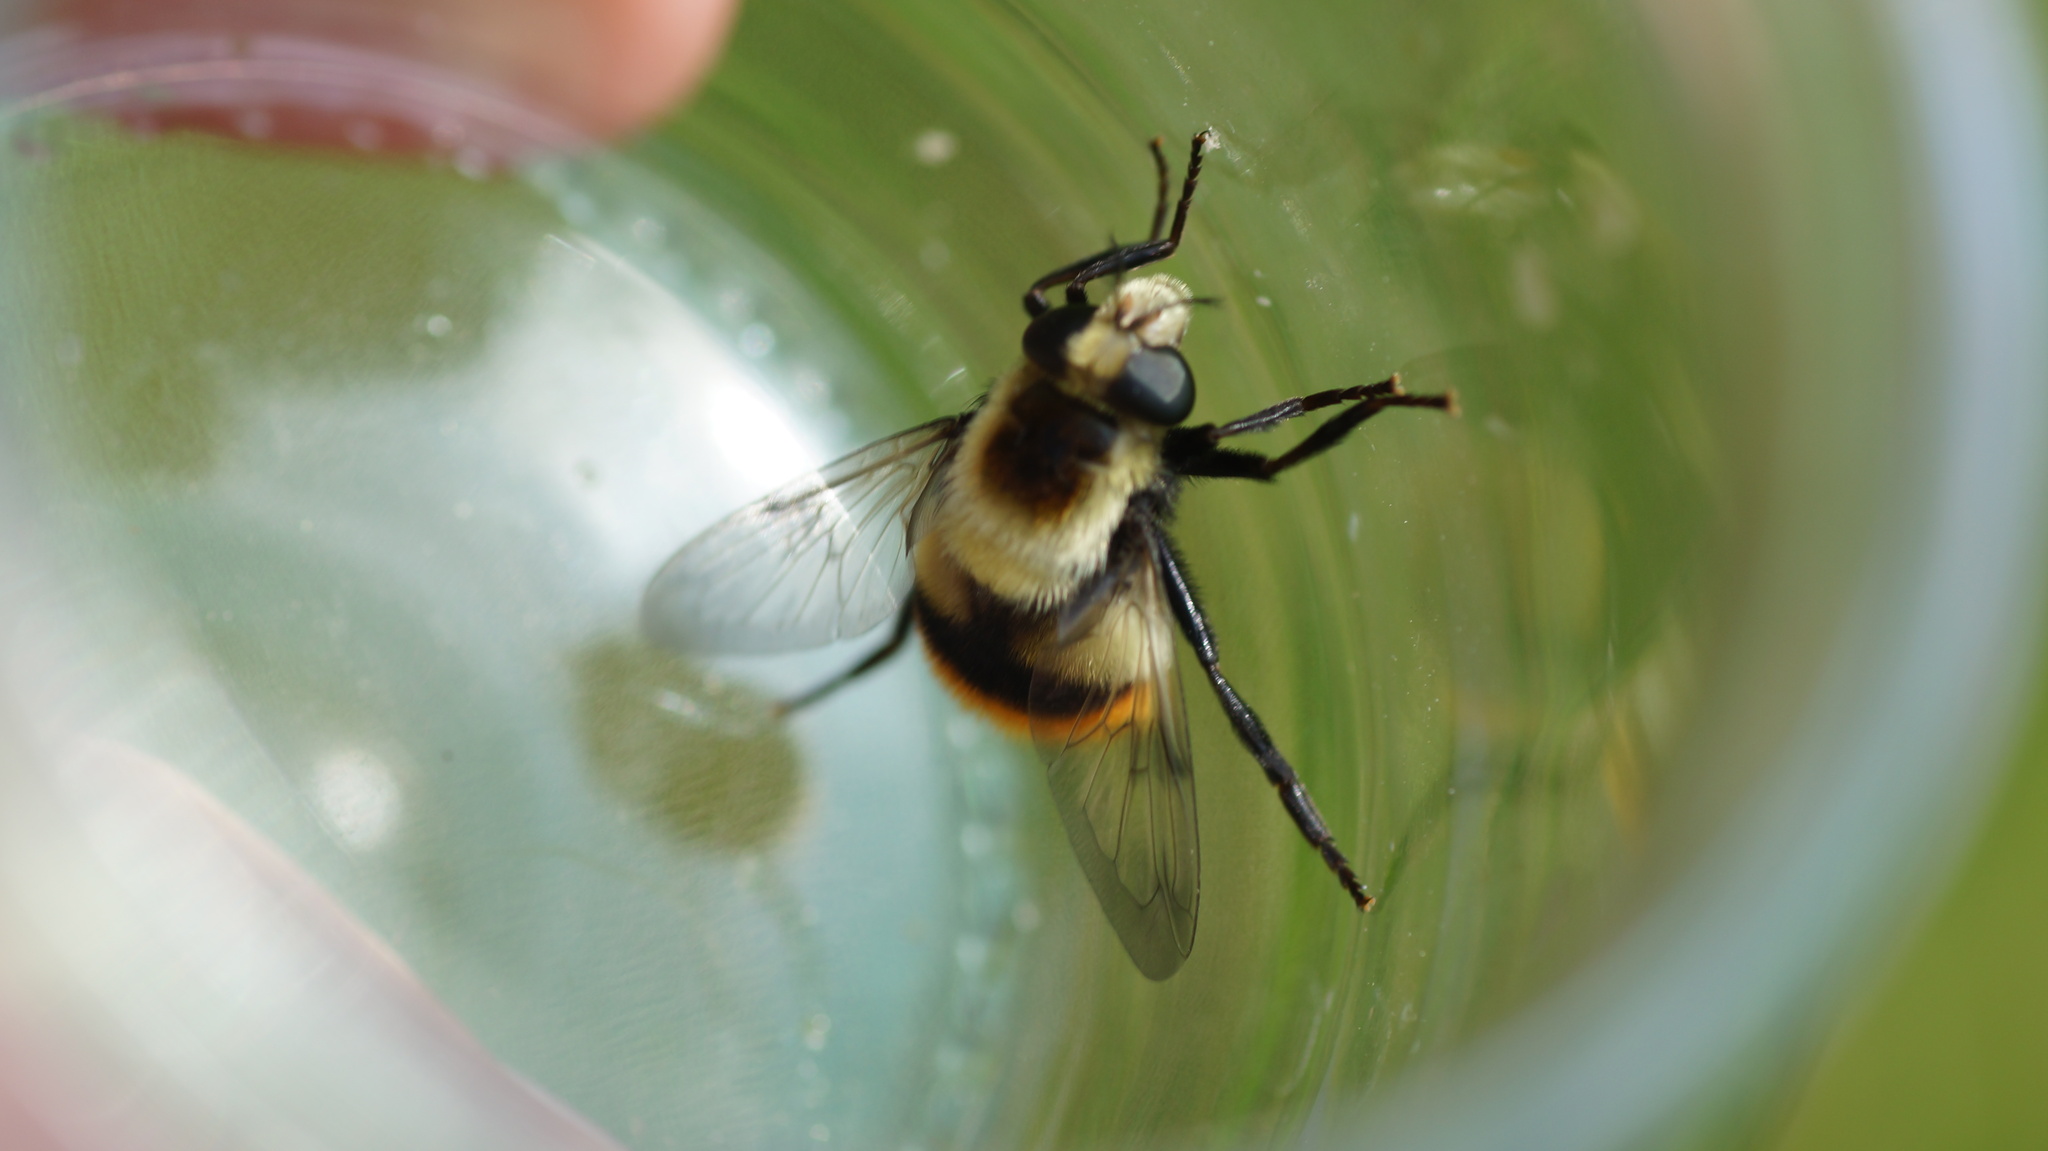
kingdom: Animalia
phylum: Arthropoda
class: Insecta
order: Diptera
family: Syrphidae
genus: Volucella
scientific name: Volucella bombylans
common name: Bumble bee hover fly
